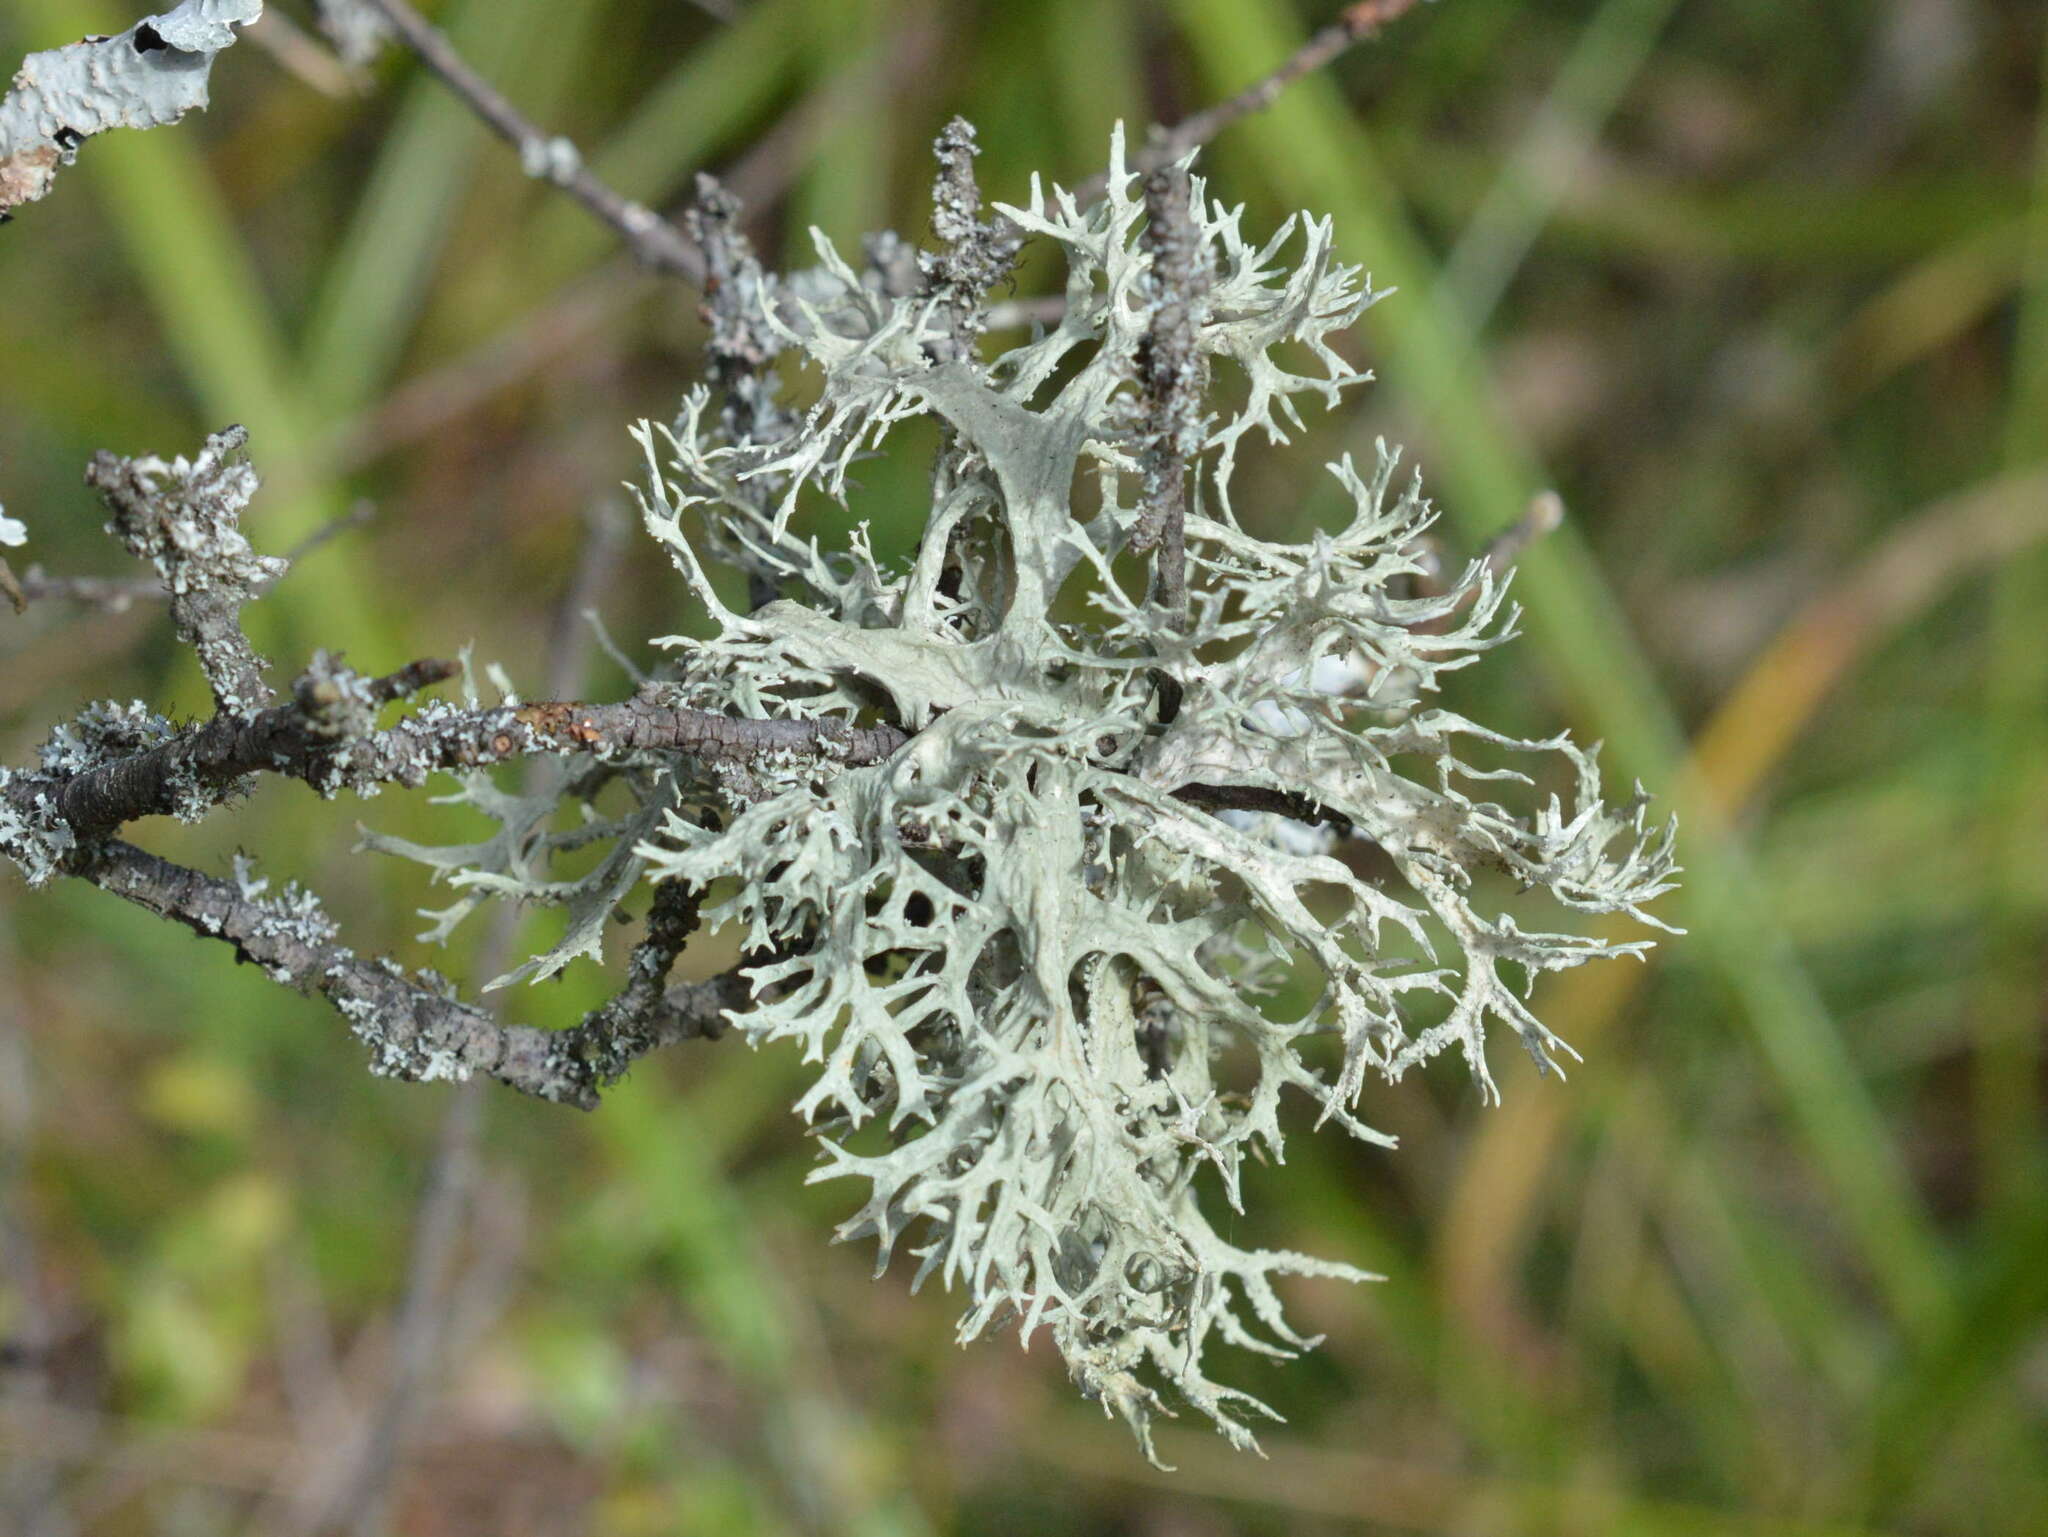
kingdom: Fungi
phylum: Ascomycota
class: Lecanoromycetes
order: Lecanorales
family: Parmeliaceae
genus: Evernia
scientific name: Evernia prunastri
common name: Oak moss
